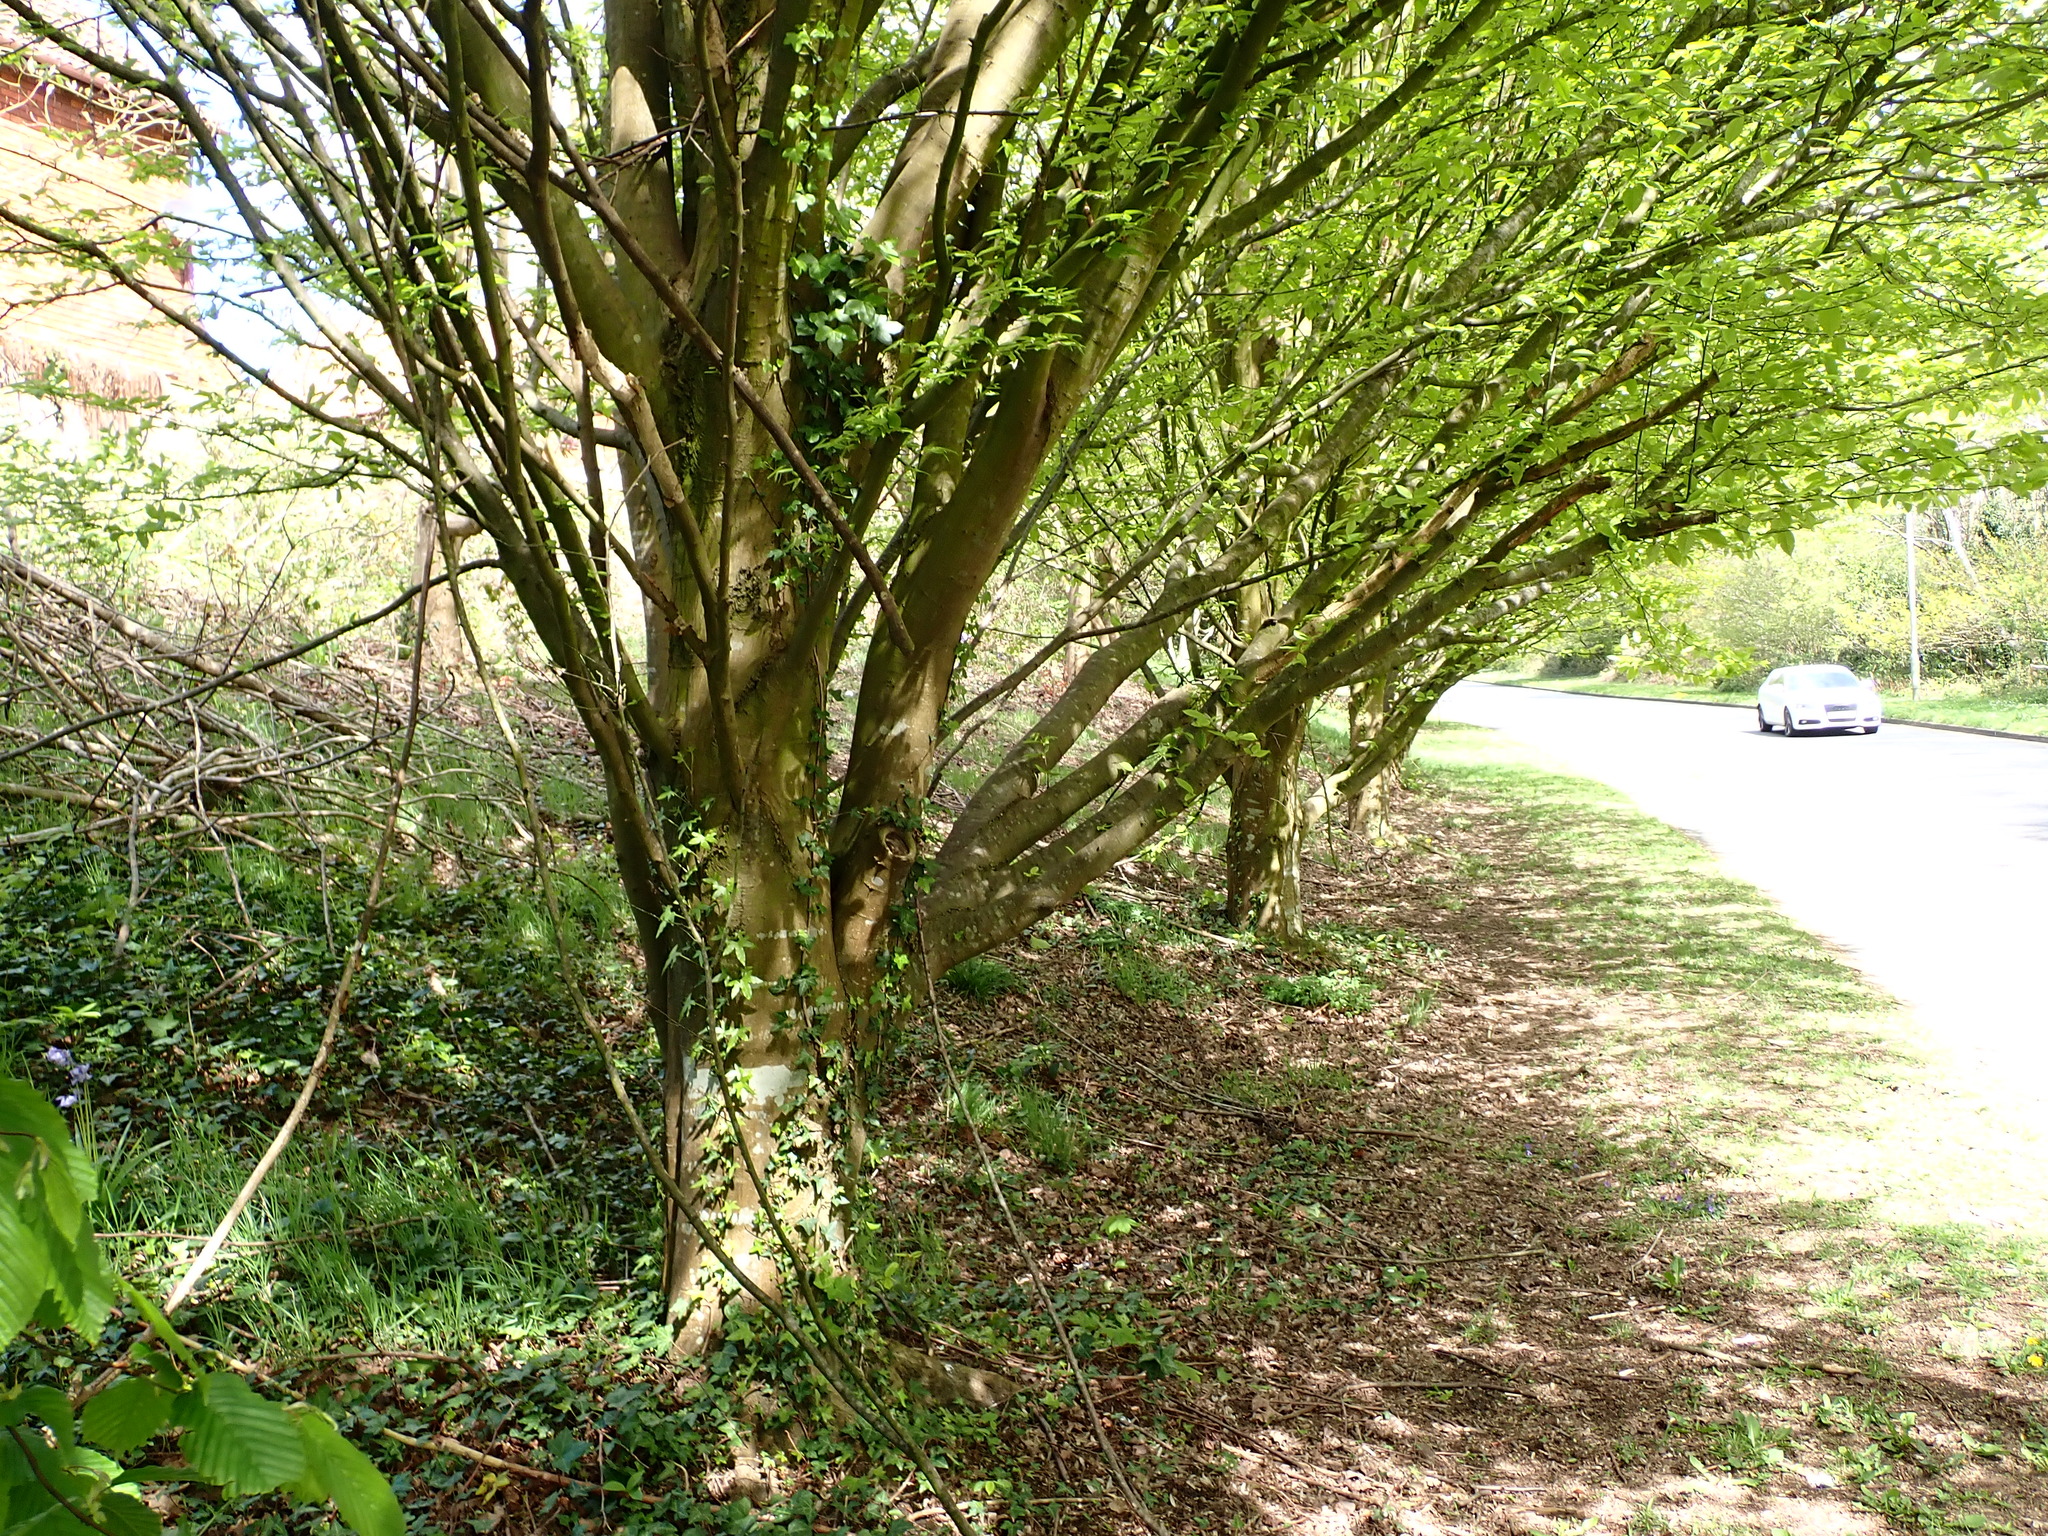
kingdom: Plantae
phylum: Tracheophyta
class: Magnoliopsida
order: Fagales
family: Betulaceae
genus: Carpinus
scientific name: Carpinus betulus
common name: Hornbeam
